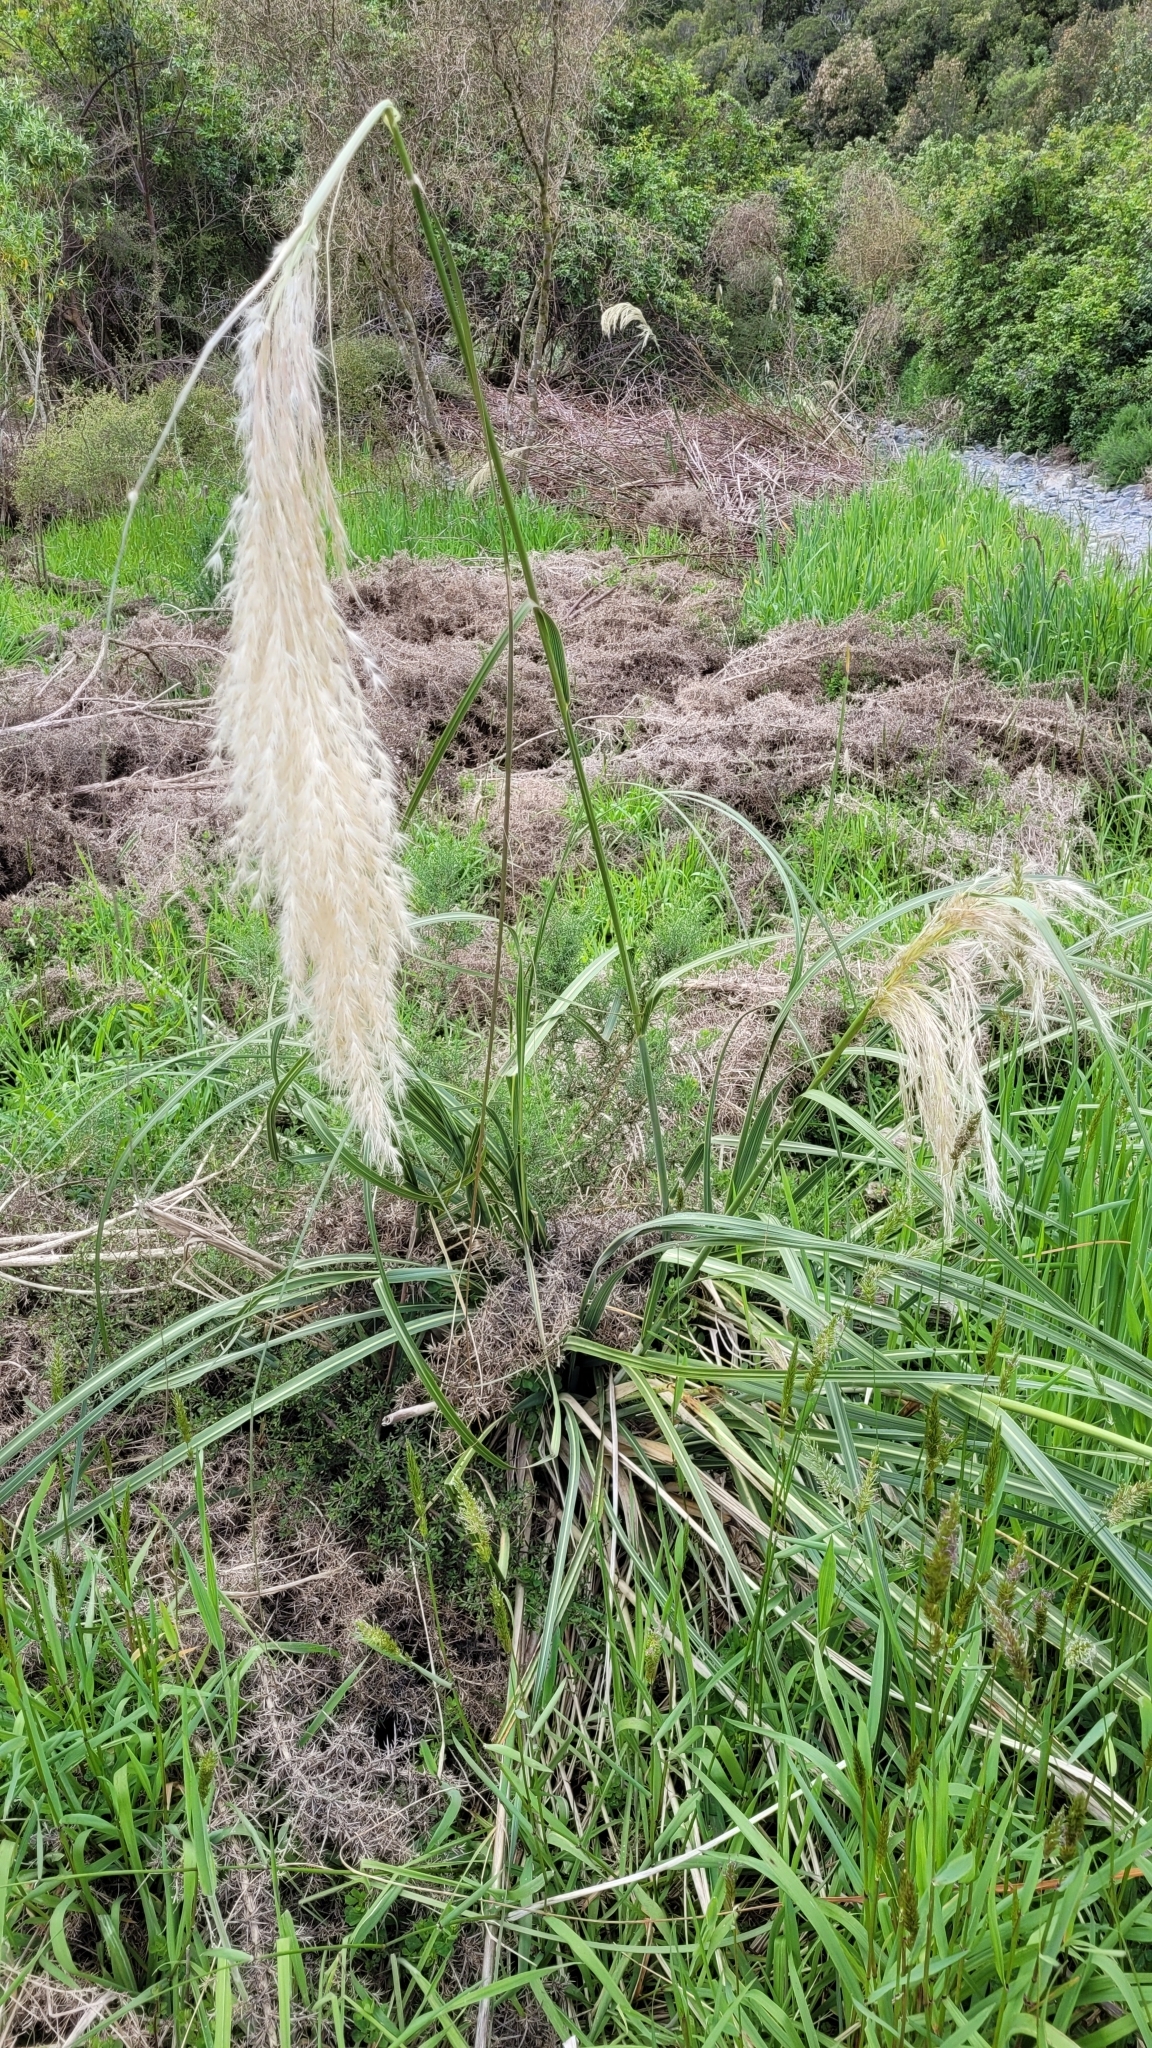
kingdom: Plantae
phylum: Tracheophyta
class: Liliopsida
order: Poales
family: Poaceae
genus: Austroderia
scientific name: Austroderia richardii
